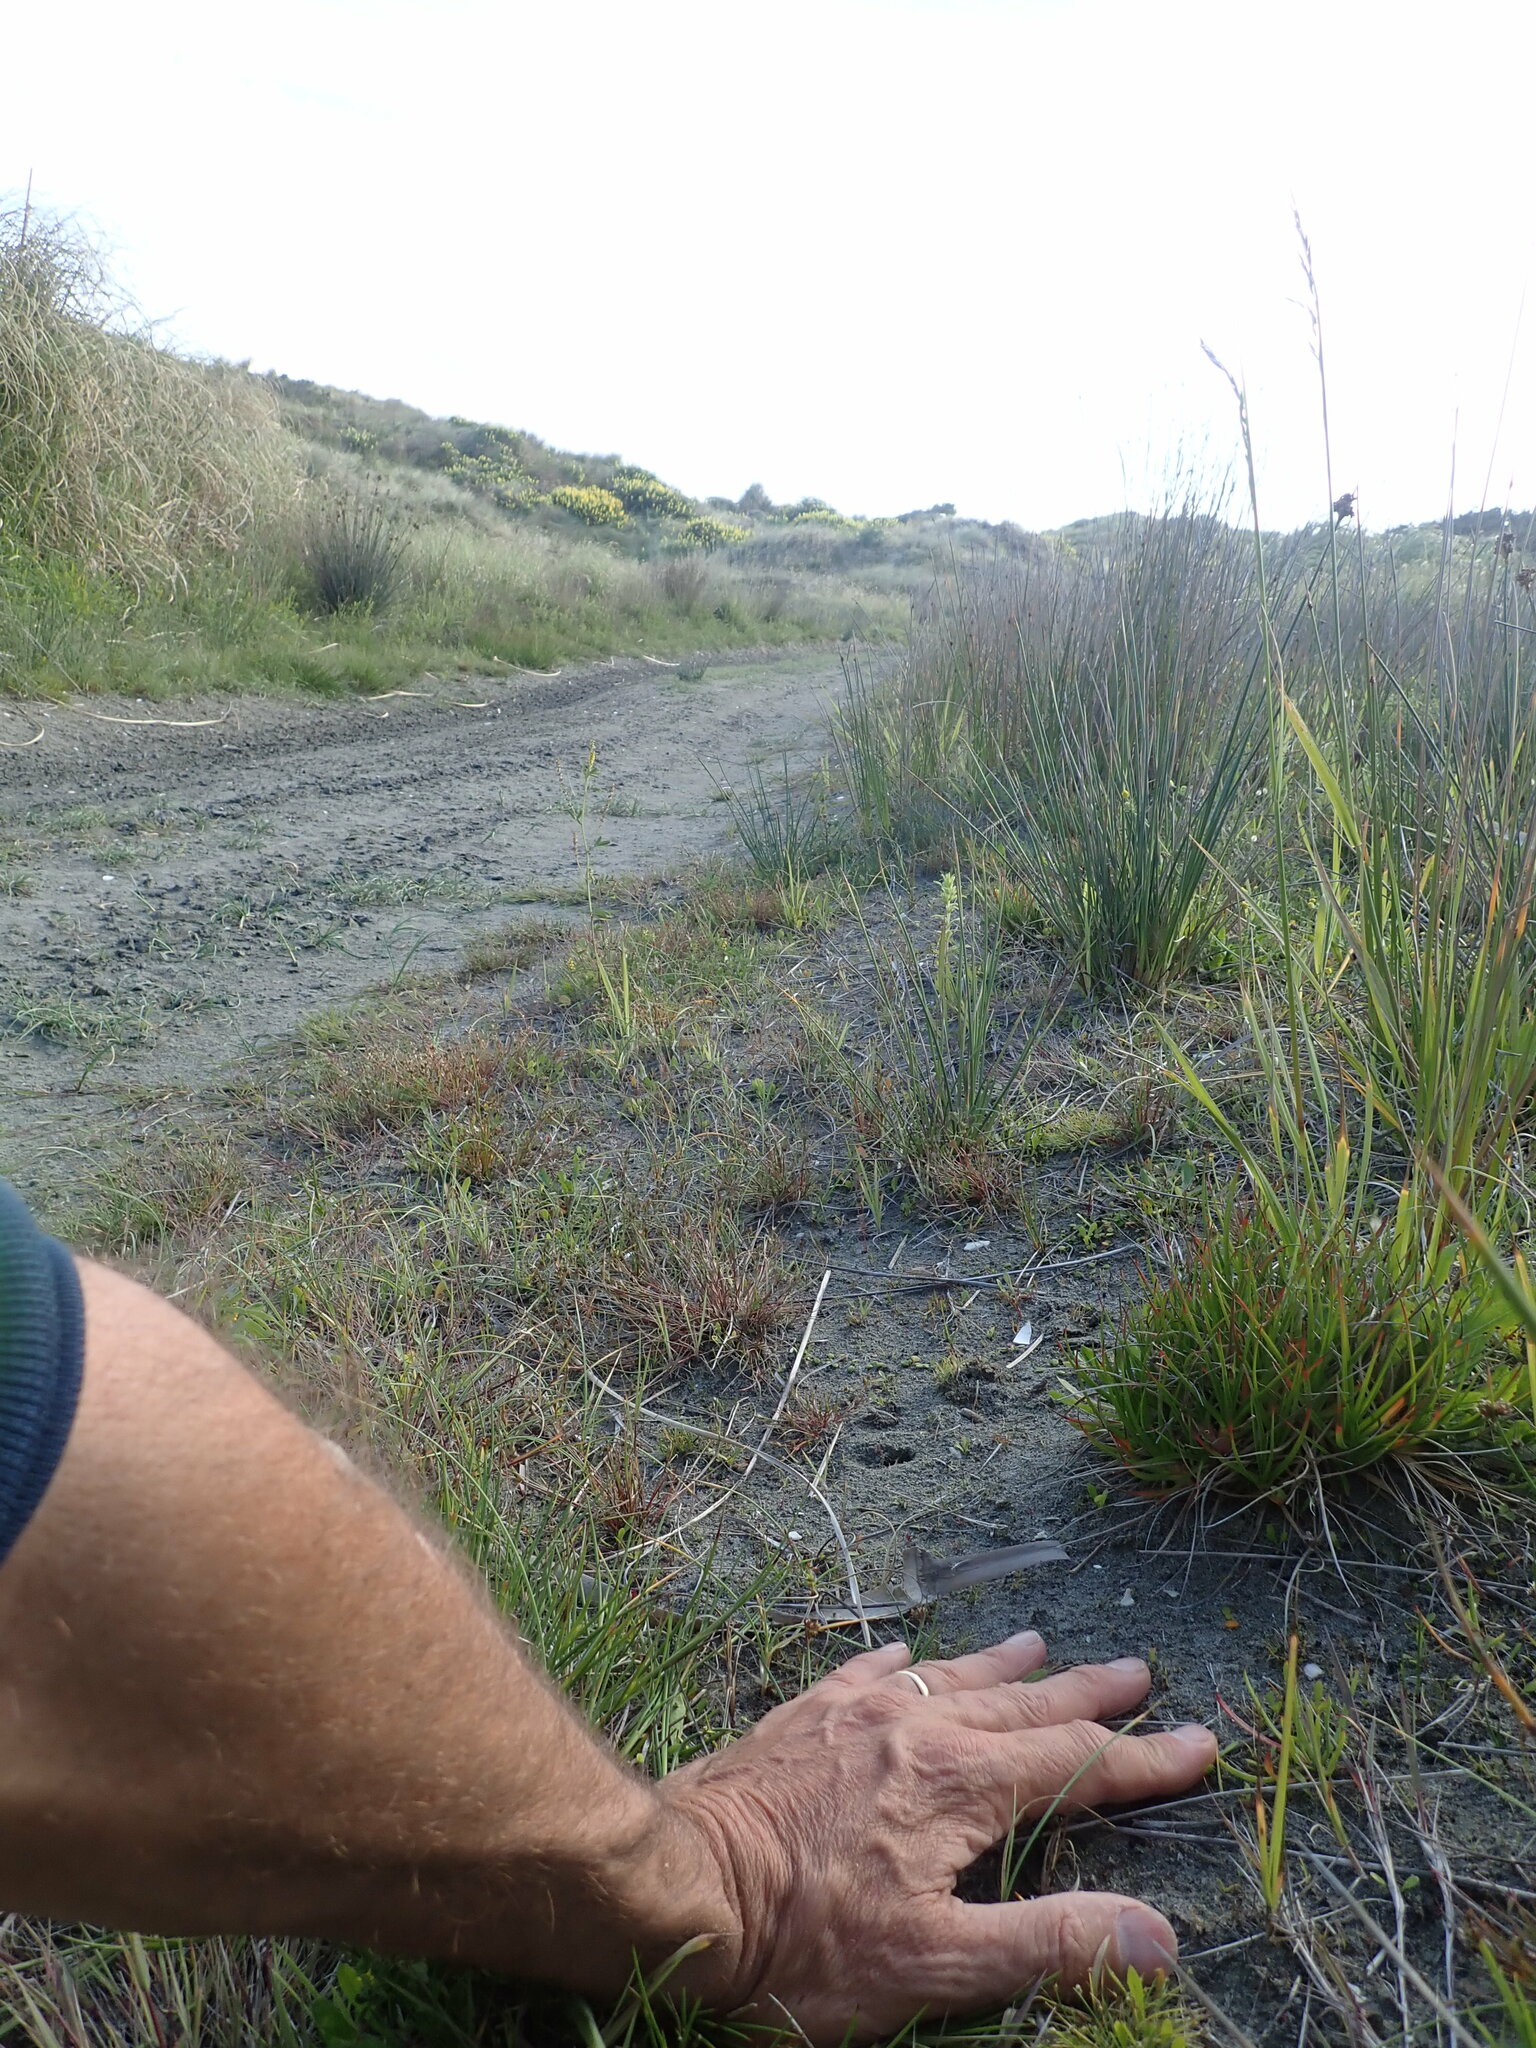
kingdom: Plantae
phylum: Tracheophyta
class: Magnoliopsida
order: Lamiales
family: Plantaginaceae
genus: Plantago
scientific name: Plantago coronopus
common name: Buck's-horn plantain
